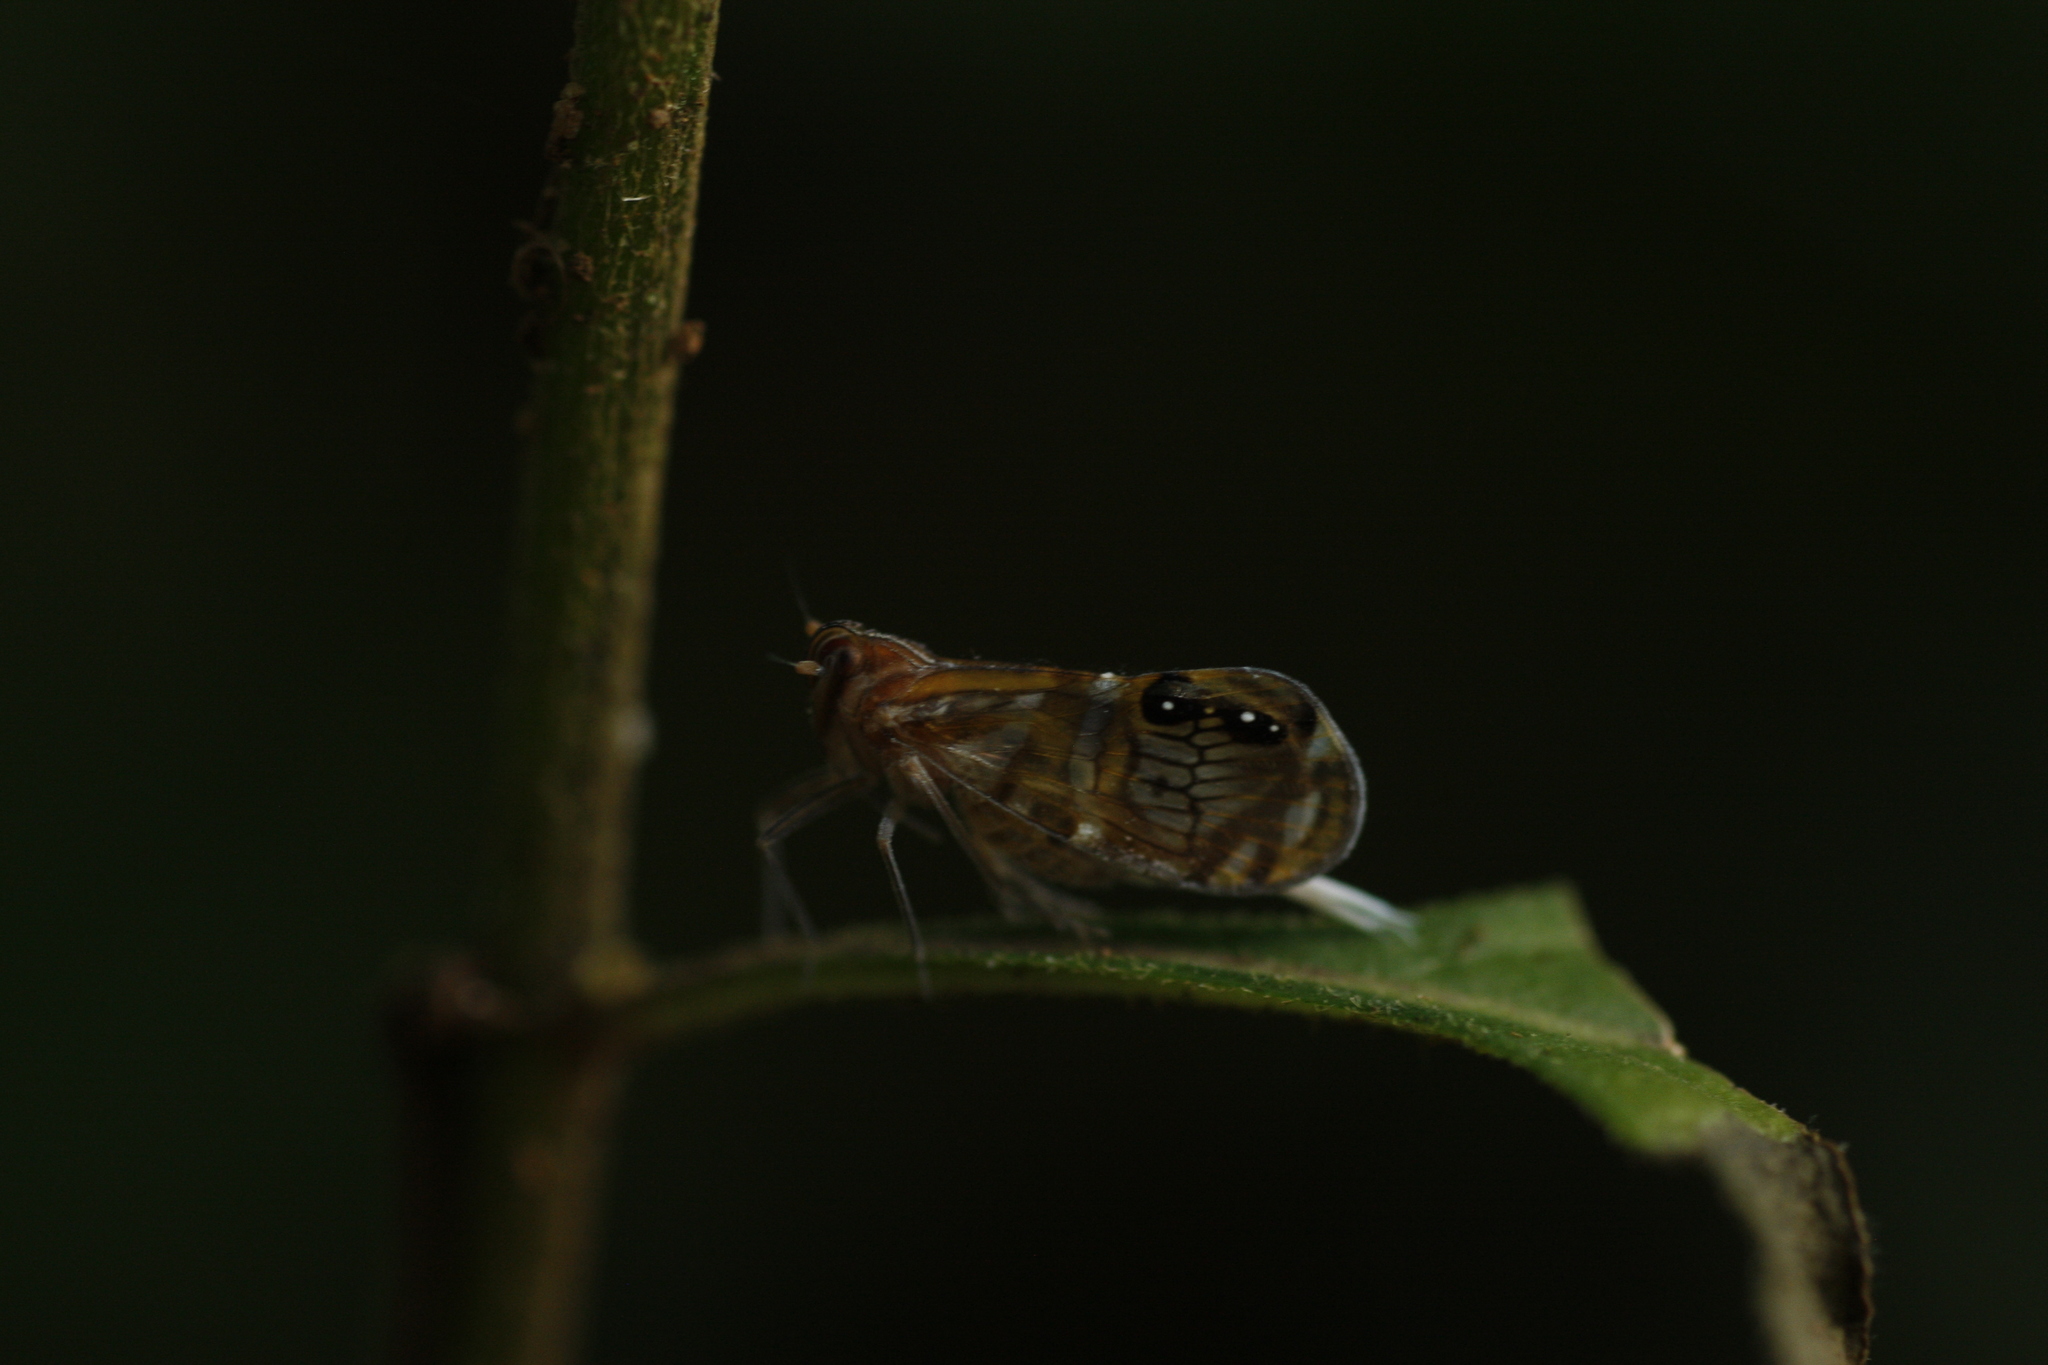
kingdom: Animalia
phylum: Arthropoda
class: Insecta
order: Hemiptera
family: Cixiidae
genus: Brixia
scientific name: Brixia albomaculata
